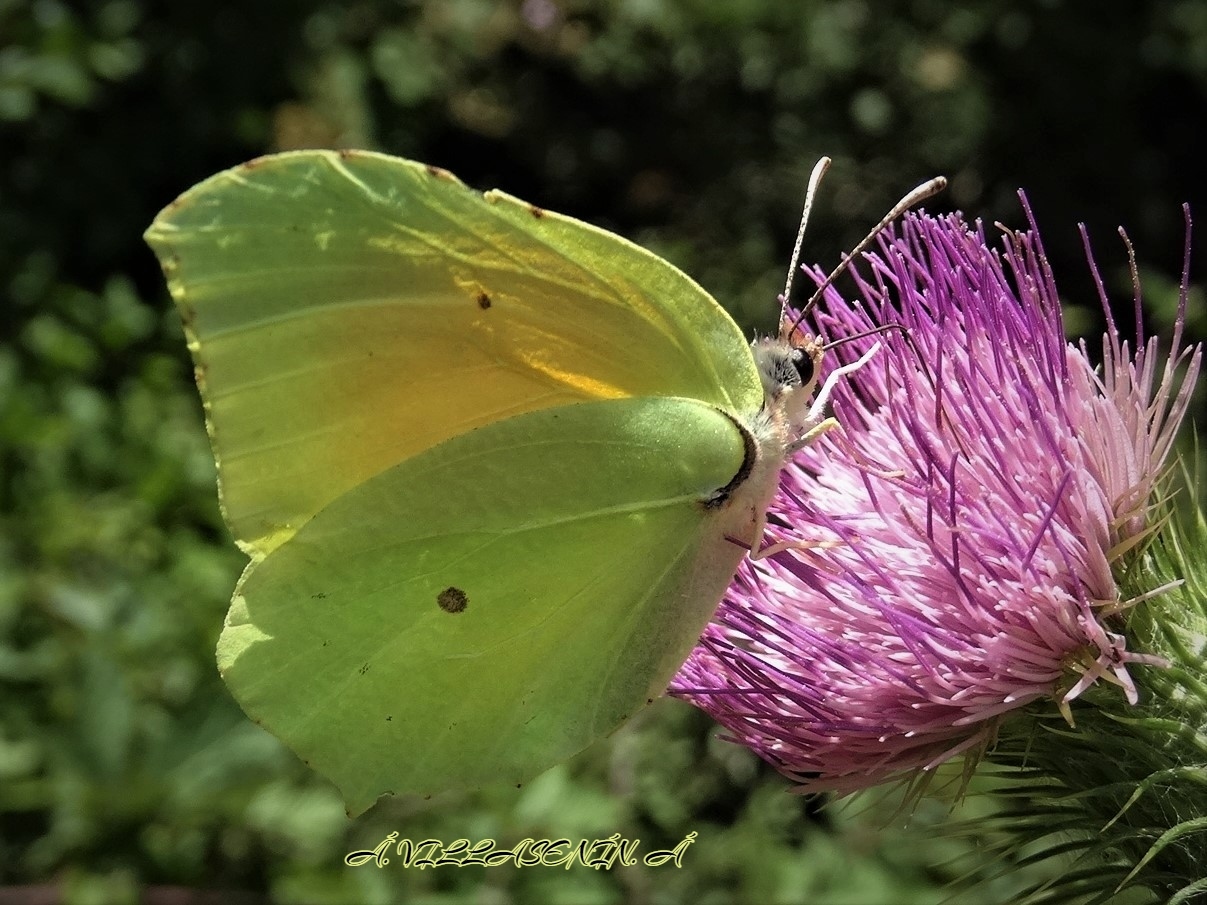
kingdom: Animalia
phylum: Arthropoda
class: Insecta
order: Lepidoptera
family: Pieridae
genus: Gonepteryx
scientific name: Gonepteryx cleopatra
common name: Cleopatra
